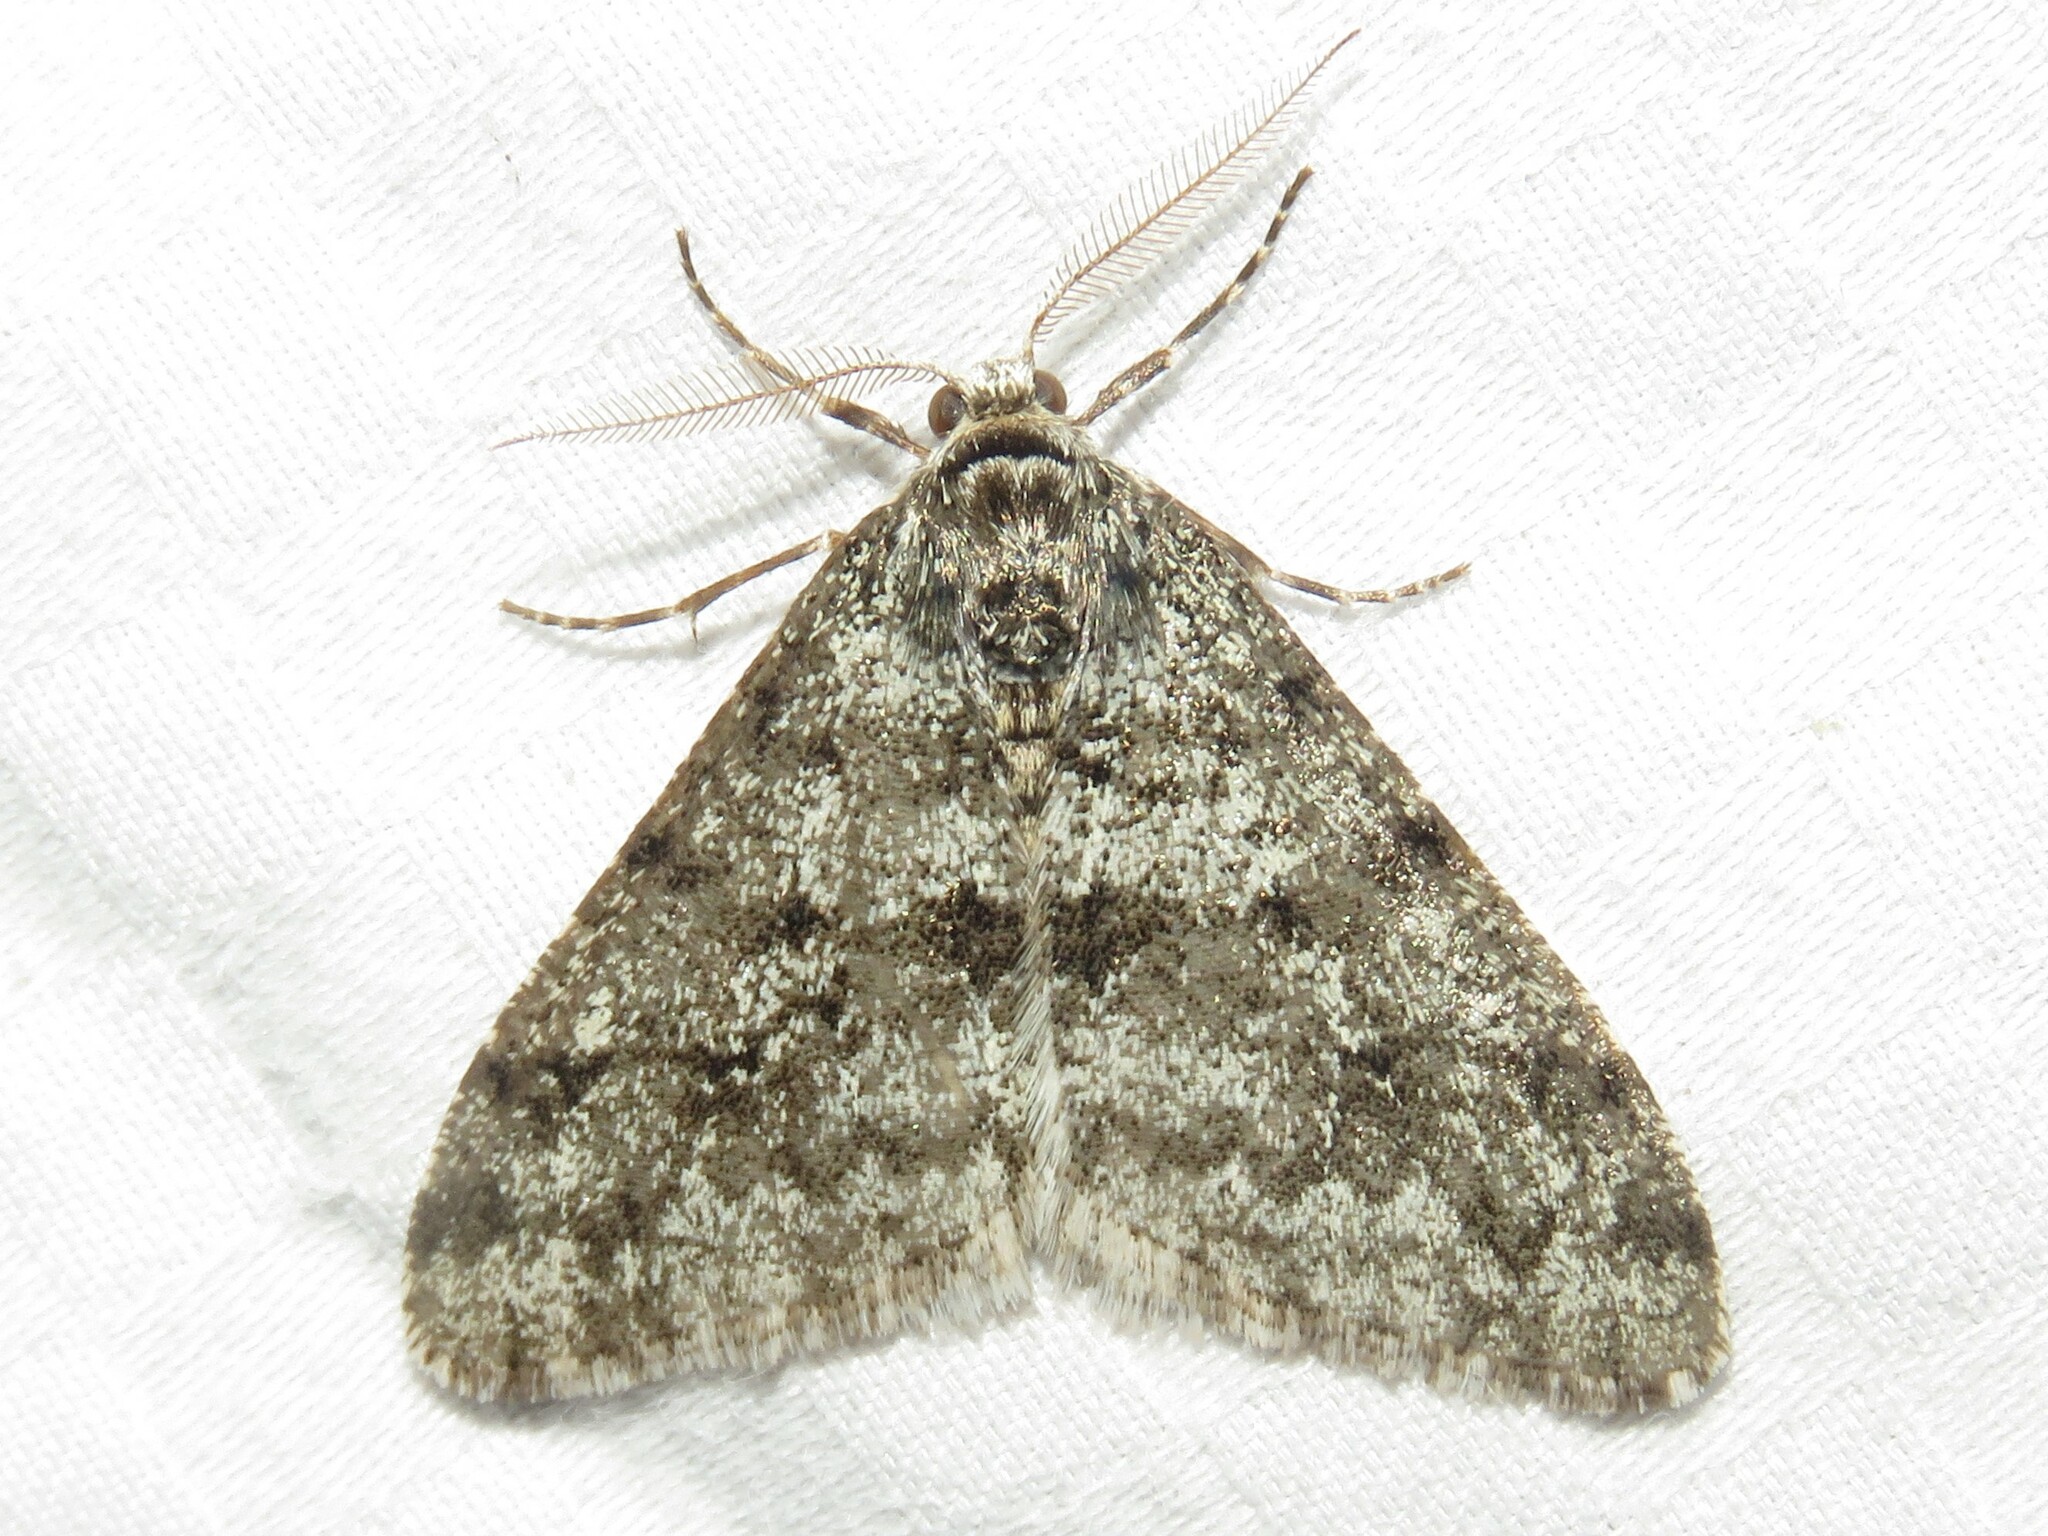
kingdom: Animalia
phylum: Arthropoda
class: Insecta
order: Lepidoptera
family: Geometridae
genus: Phigalia
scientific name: Phigalia strigataria
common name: Small phigalia
